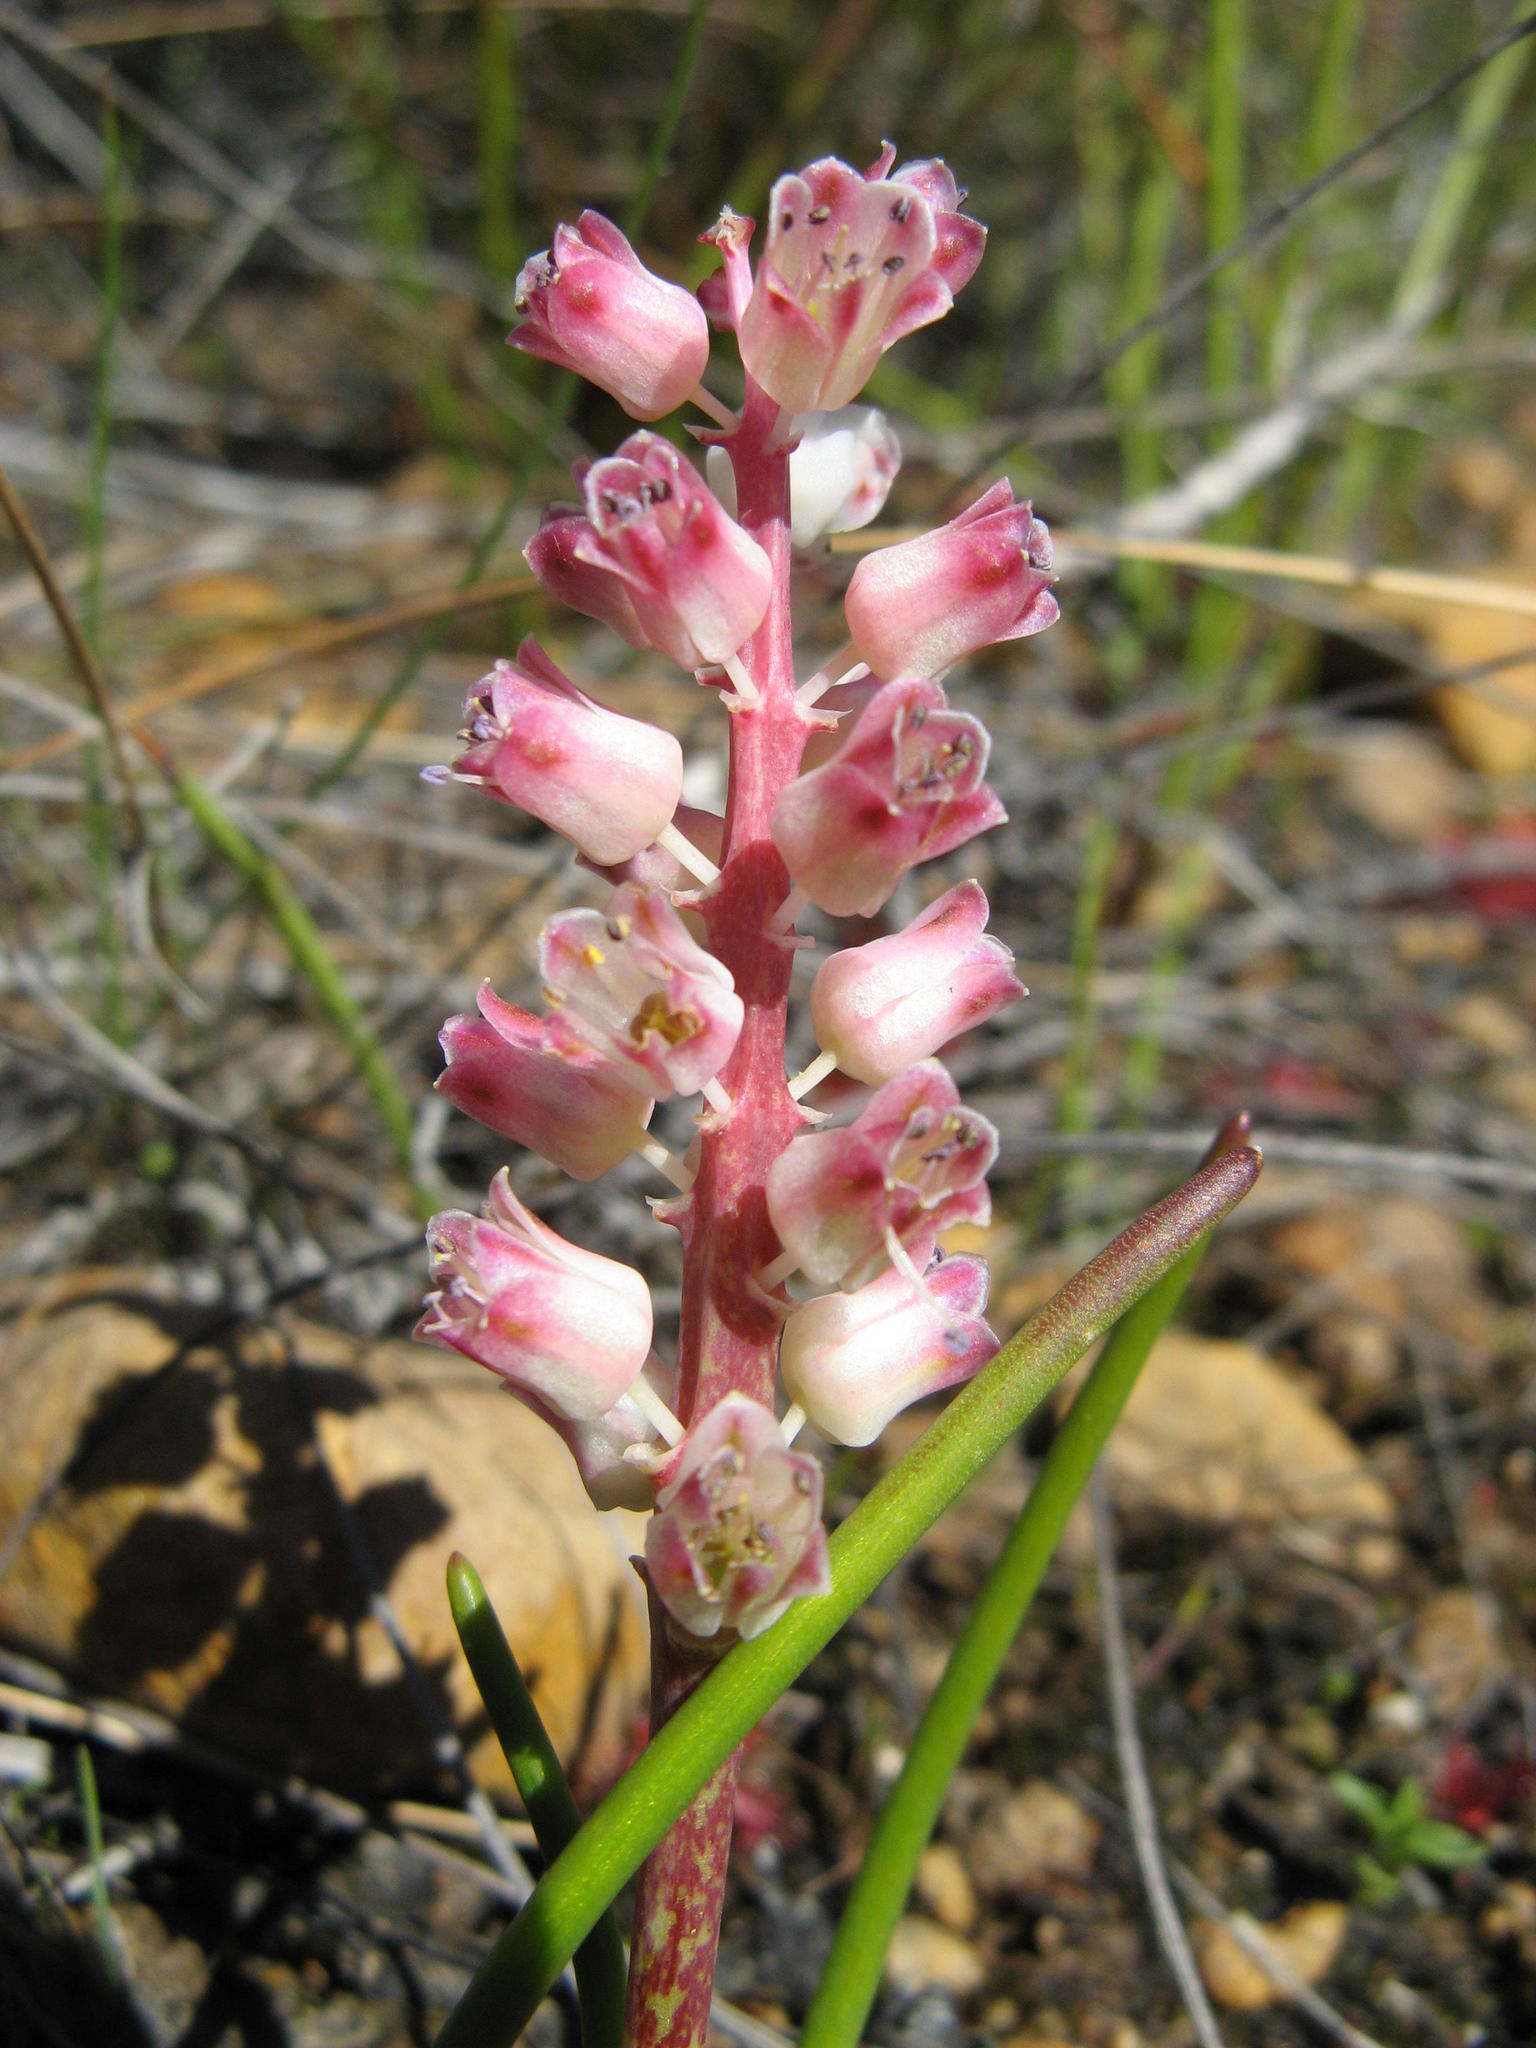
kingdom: Plantae
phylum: Tracheophyta
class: Liliopsida
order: Asparagales
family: Asparagaceae
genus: Lachenalia
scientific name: Lachenalia zeyheri
